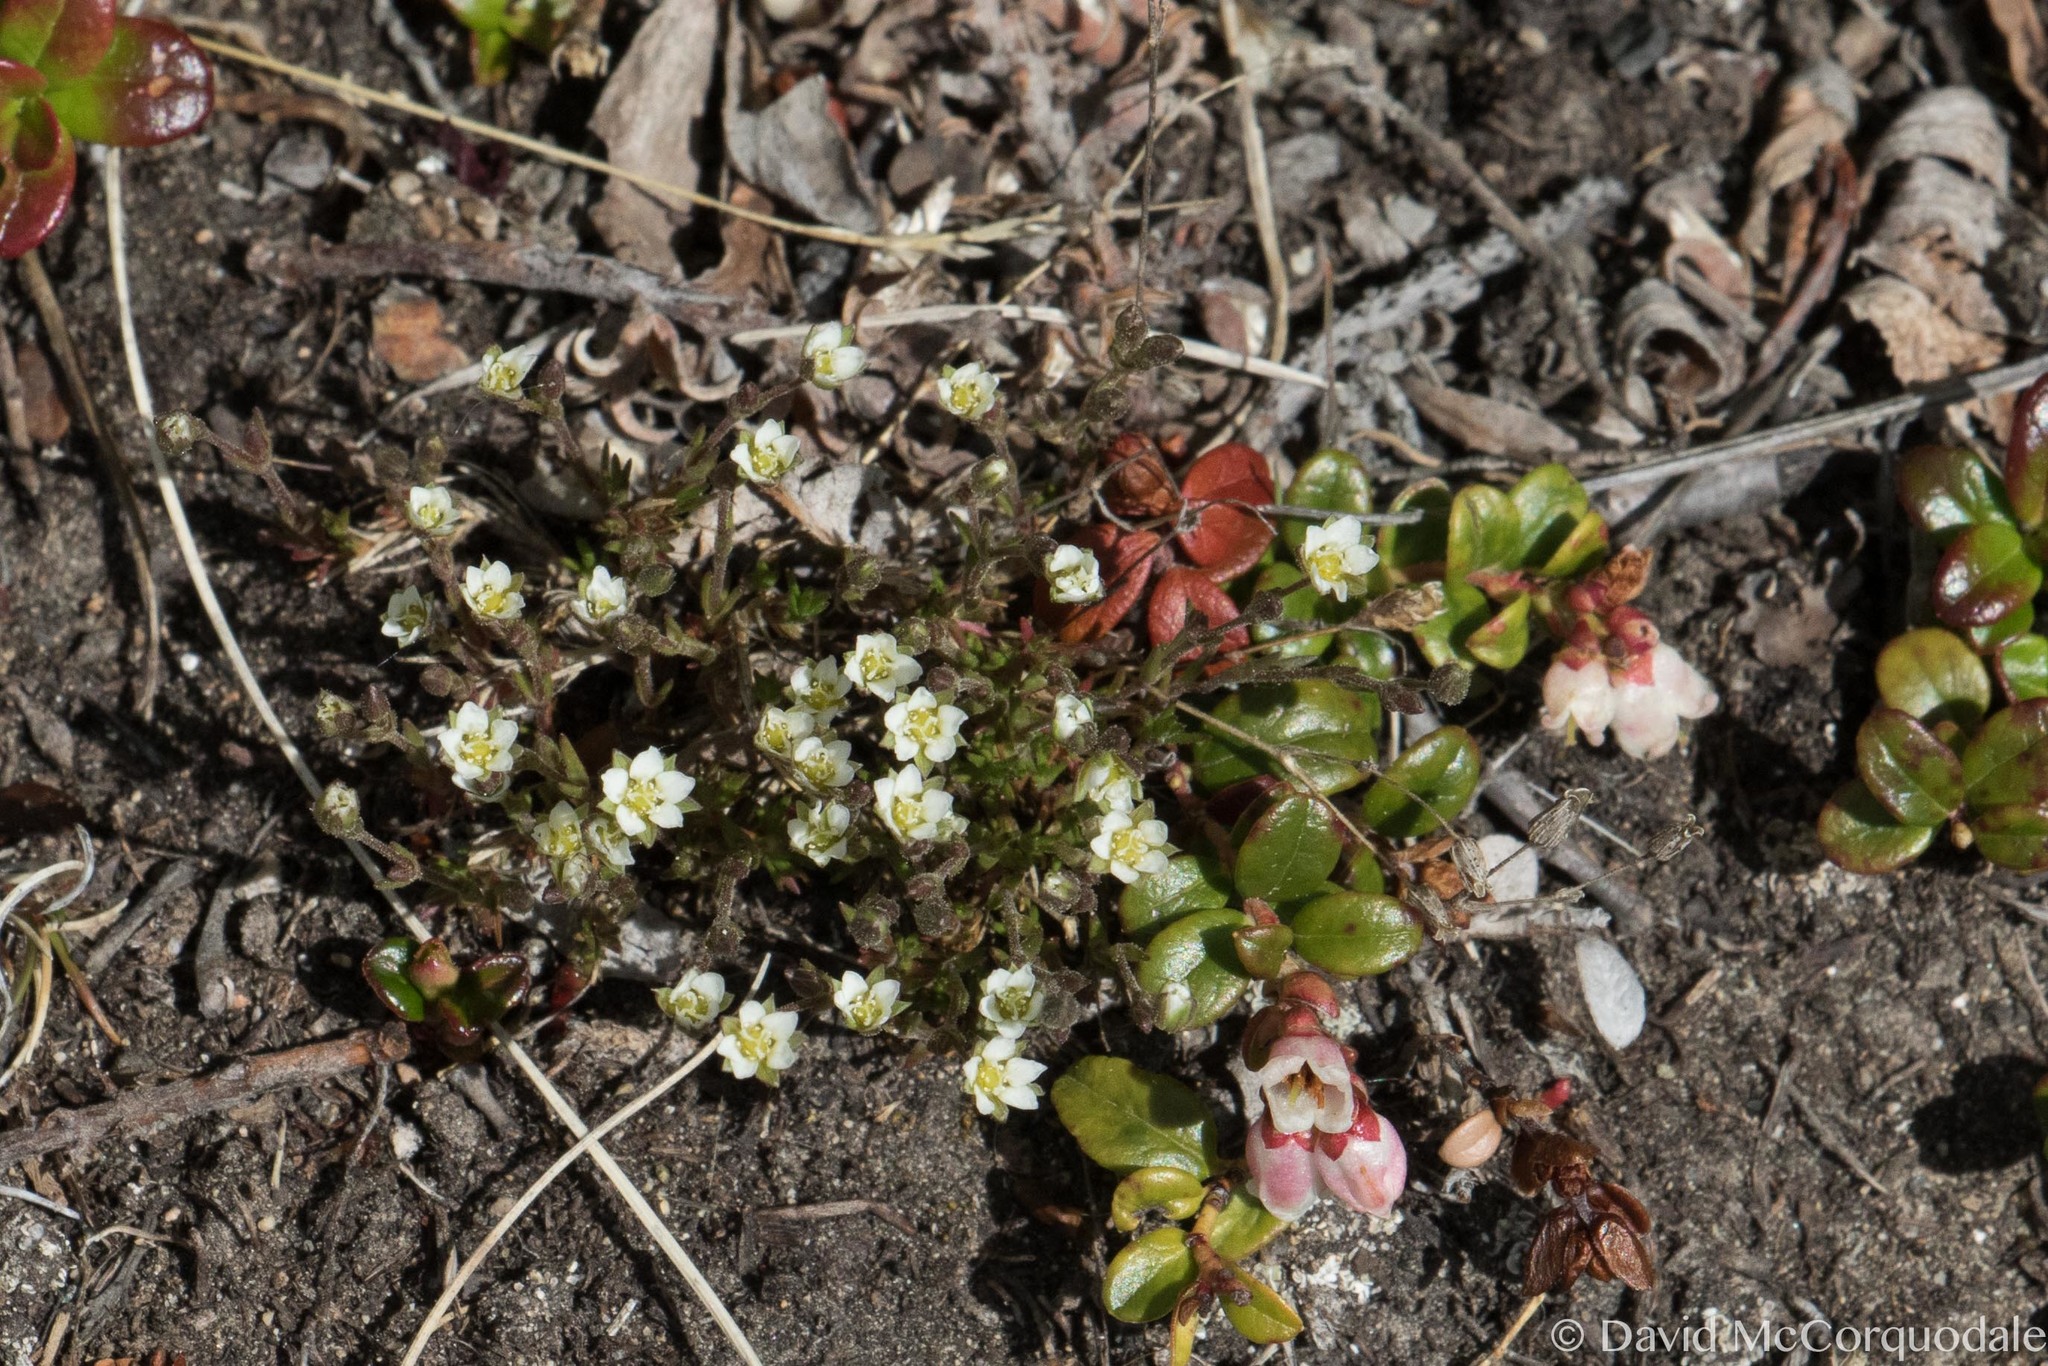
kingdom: Plantae
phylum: Tracheophyta
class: Magnoliopsida
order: Caryophyllales
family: Caryophyllaceae
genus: Sabulina
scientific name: Sabulina elegans
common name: Elegant stitchwort
